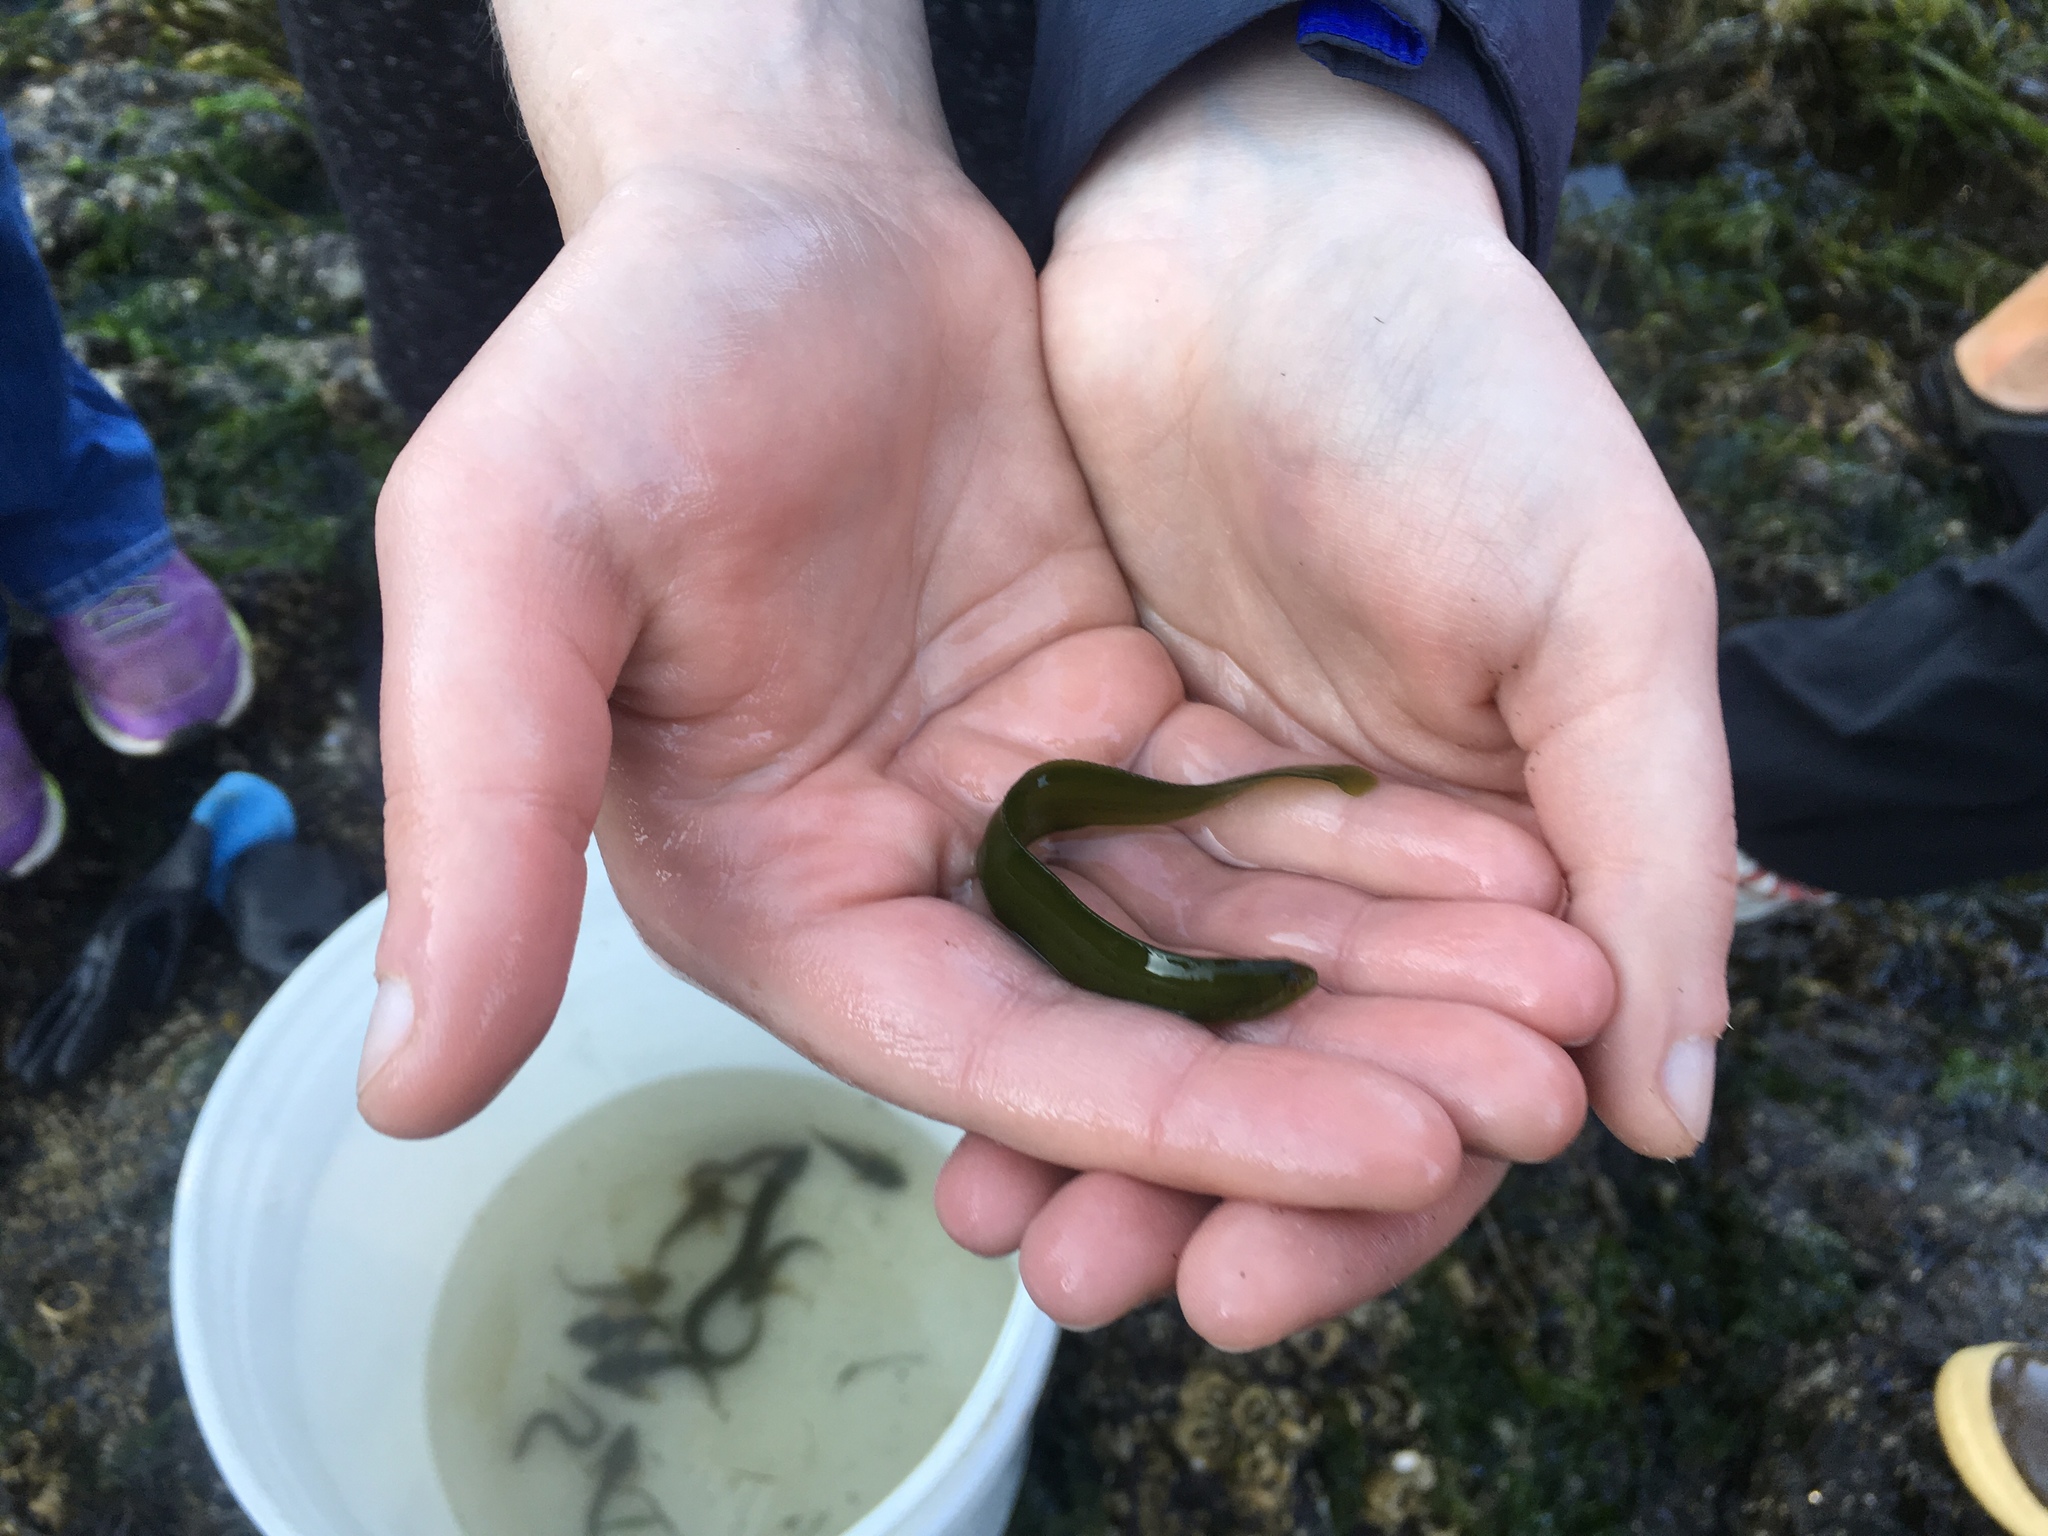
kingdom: Animalia
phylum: Chordata
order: Perciformes
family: Pholidae
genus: Apodichthys
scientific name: Apodichthys flavidus
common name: Penpoint gunnel
